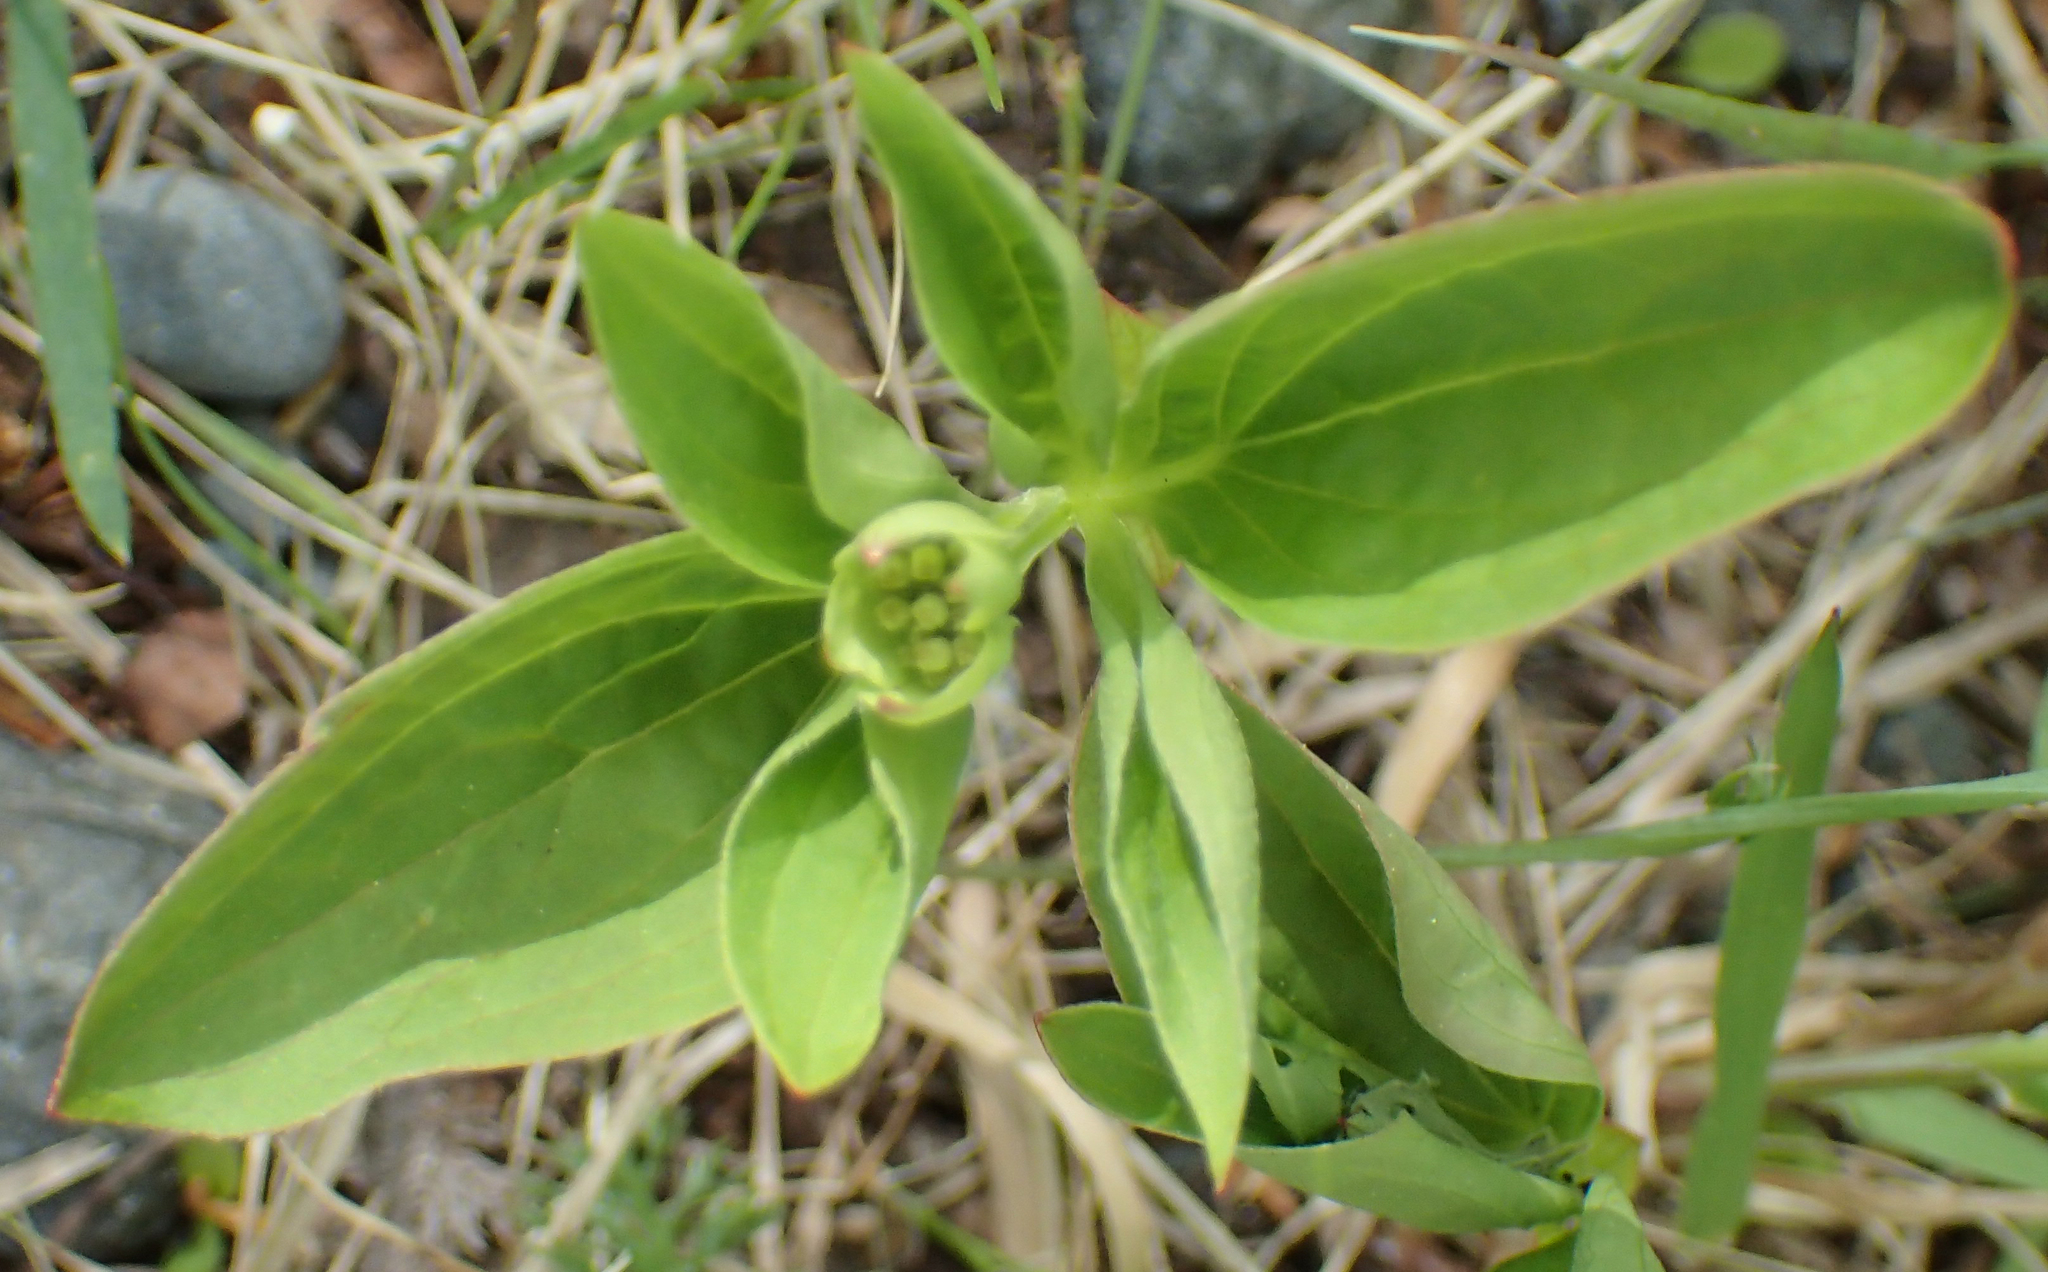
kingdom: Plantae
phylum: Tracheophyta
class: Magnoliopsida
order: Cornales
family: Cornaceae
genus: Cornus
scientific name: Cornus canadensis
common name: Creeping dogwood
